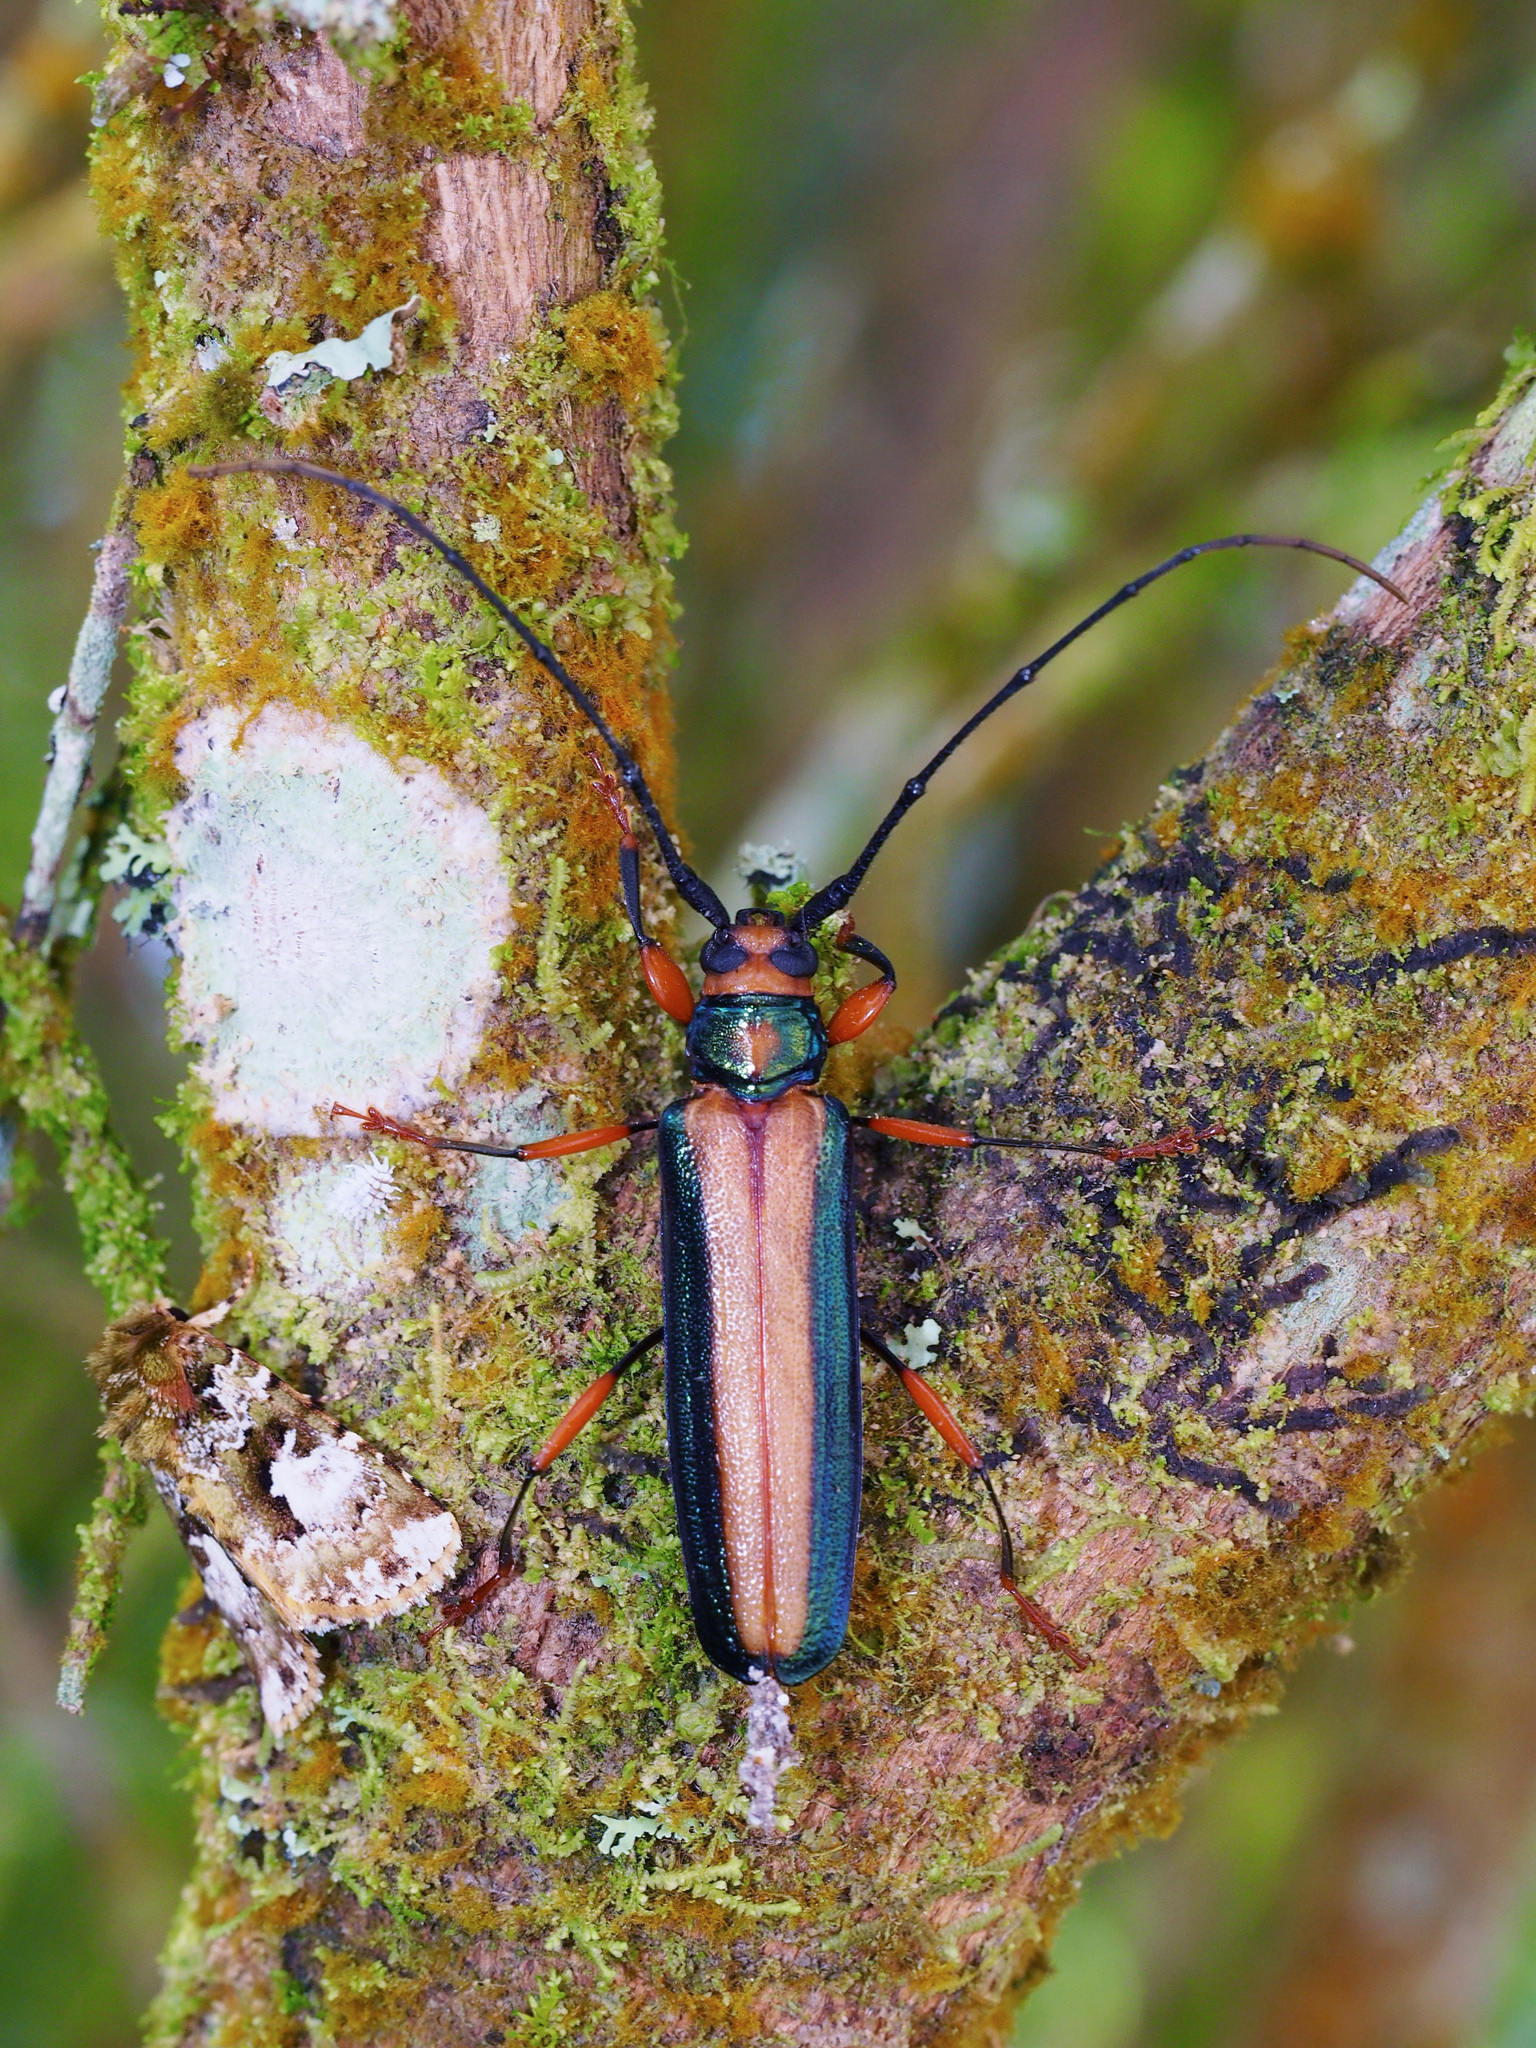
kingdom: Animalia
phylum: Arthropoda
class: Insecta
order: Coleoptera
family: Cerambycidae
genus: Xystrocera
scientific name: Xystrocera festiva
